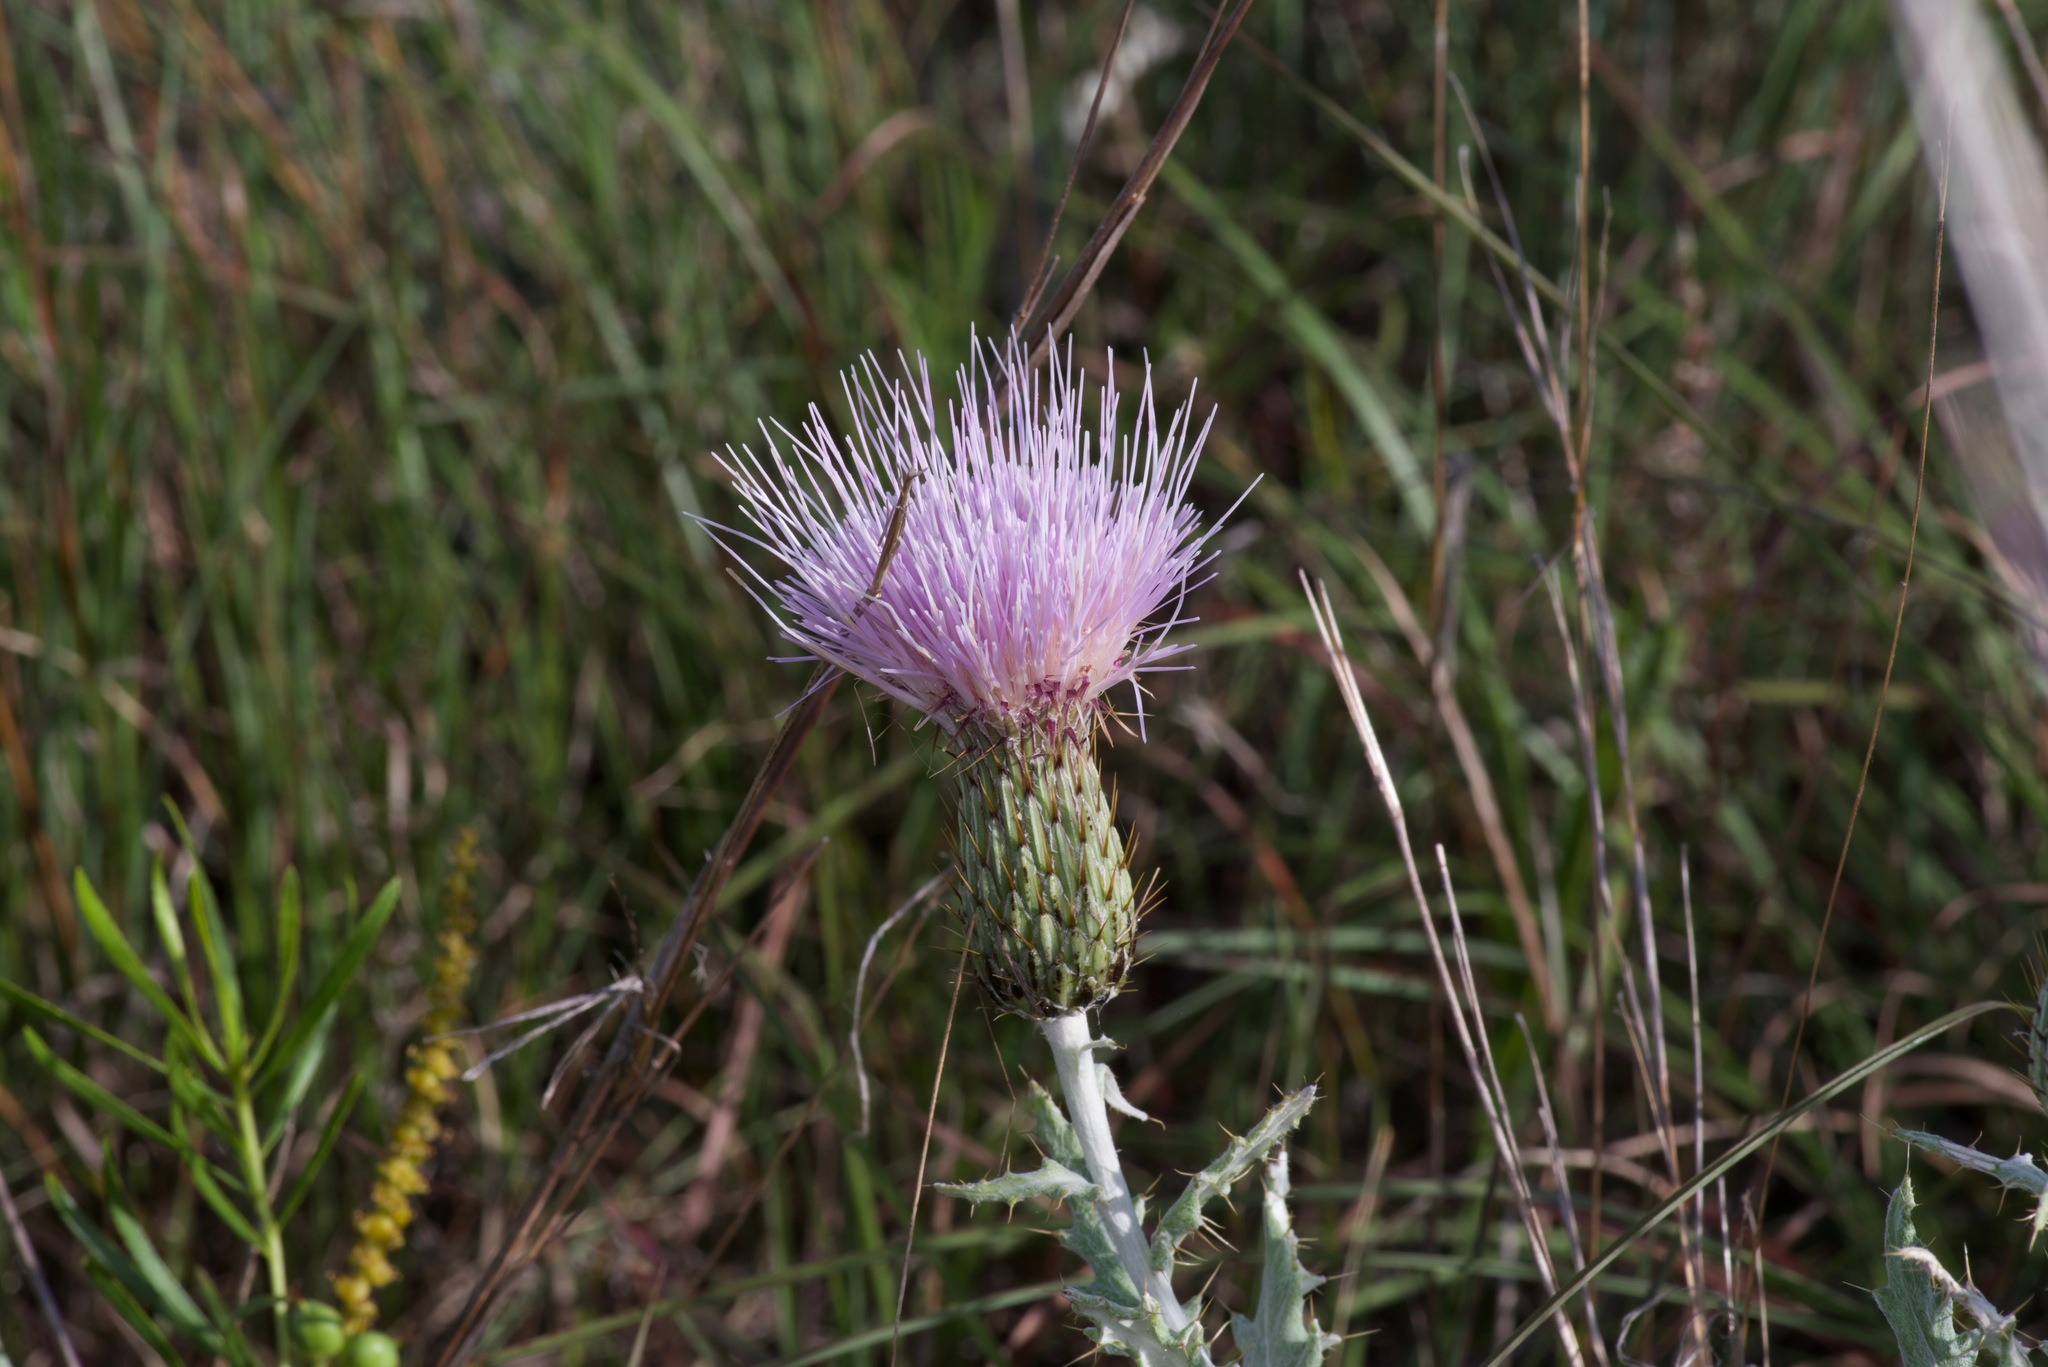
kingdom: Plantae
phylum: Tracheophyta
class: Magnoliopsida
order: Asterales
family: Asteraceae
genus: Cirsium
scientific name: Cirsium undulatum
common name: Pasture thistle
